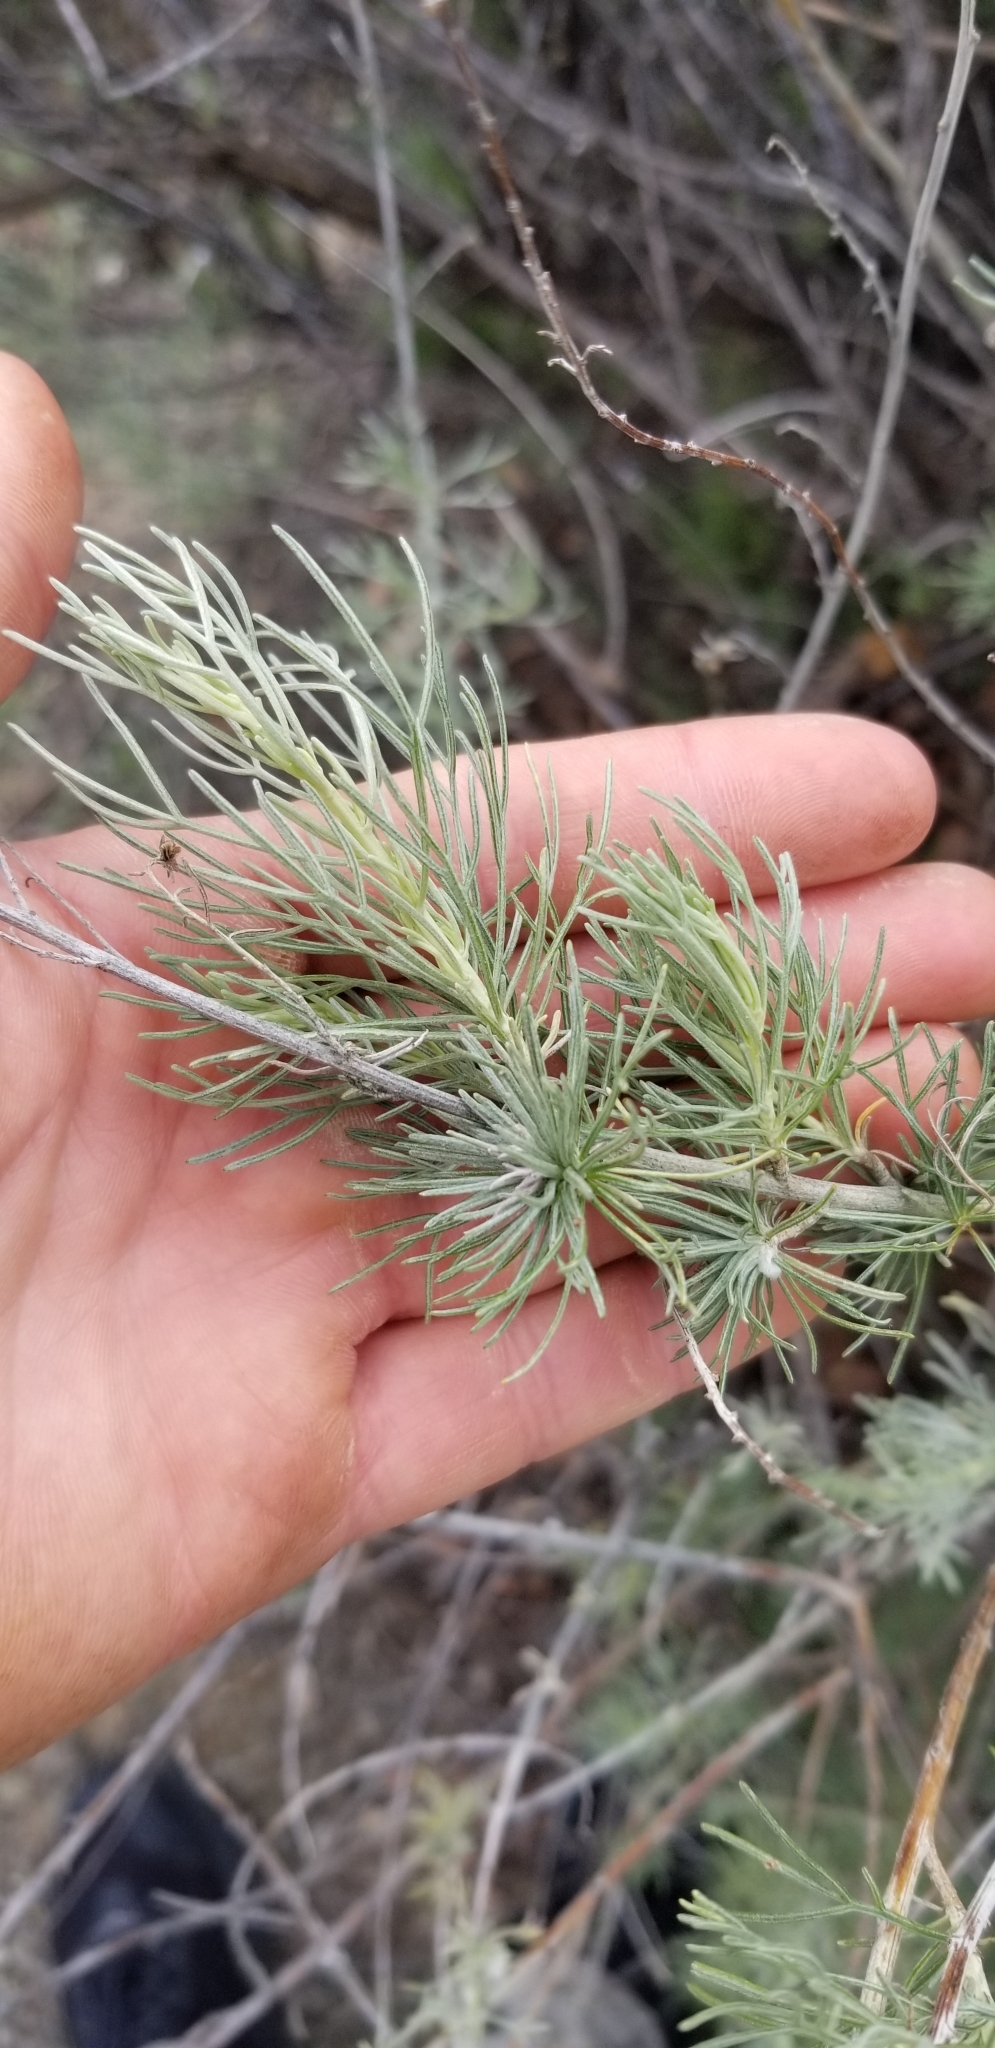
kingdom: Plantae
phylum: Tracheophyta
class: Magnoliopsida
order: Asterales
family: Asteraceae
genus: Artemisia
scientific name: Artemisia californica
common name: California sagebrush
